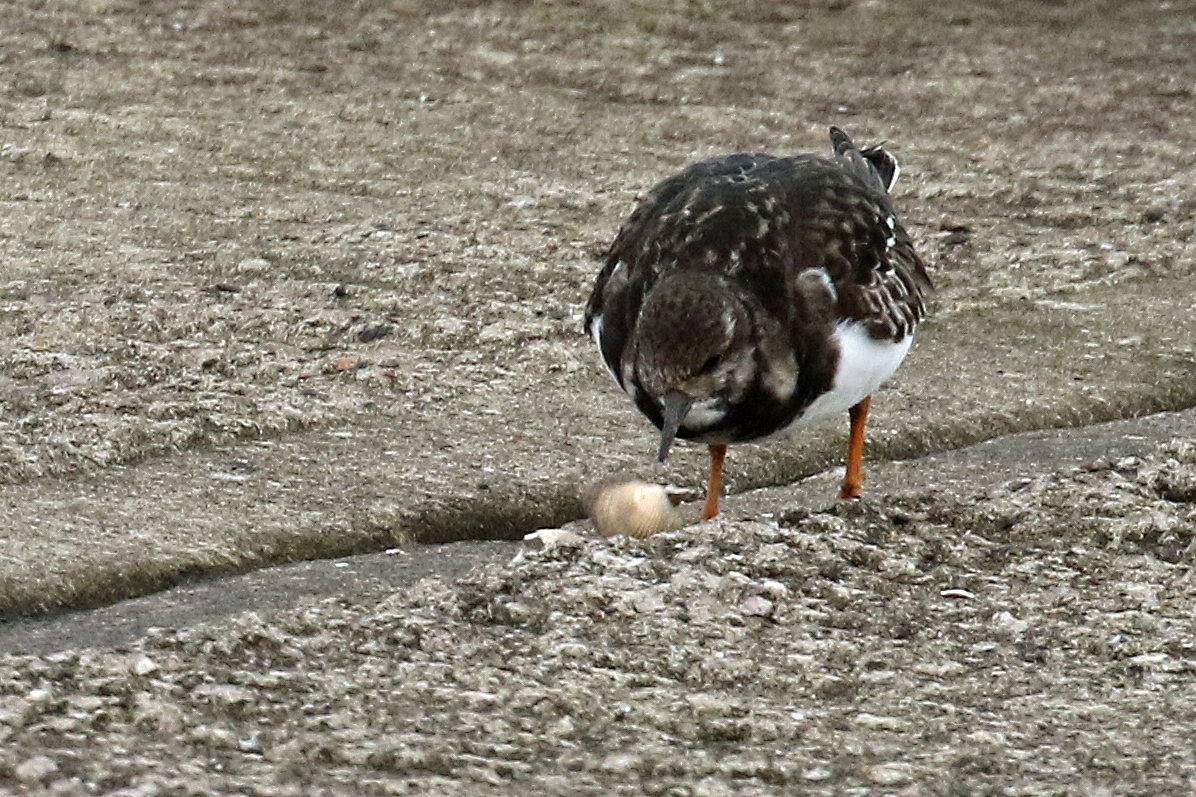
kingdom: Animalia
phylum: Chordata
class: Aves
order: Charadriiformes
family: Scolopacidae
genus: Arenaria
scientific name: Arenaria interpres
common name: Ruddy turnstone
